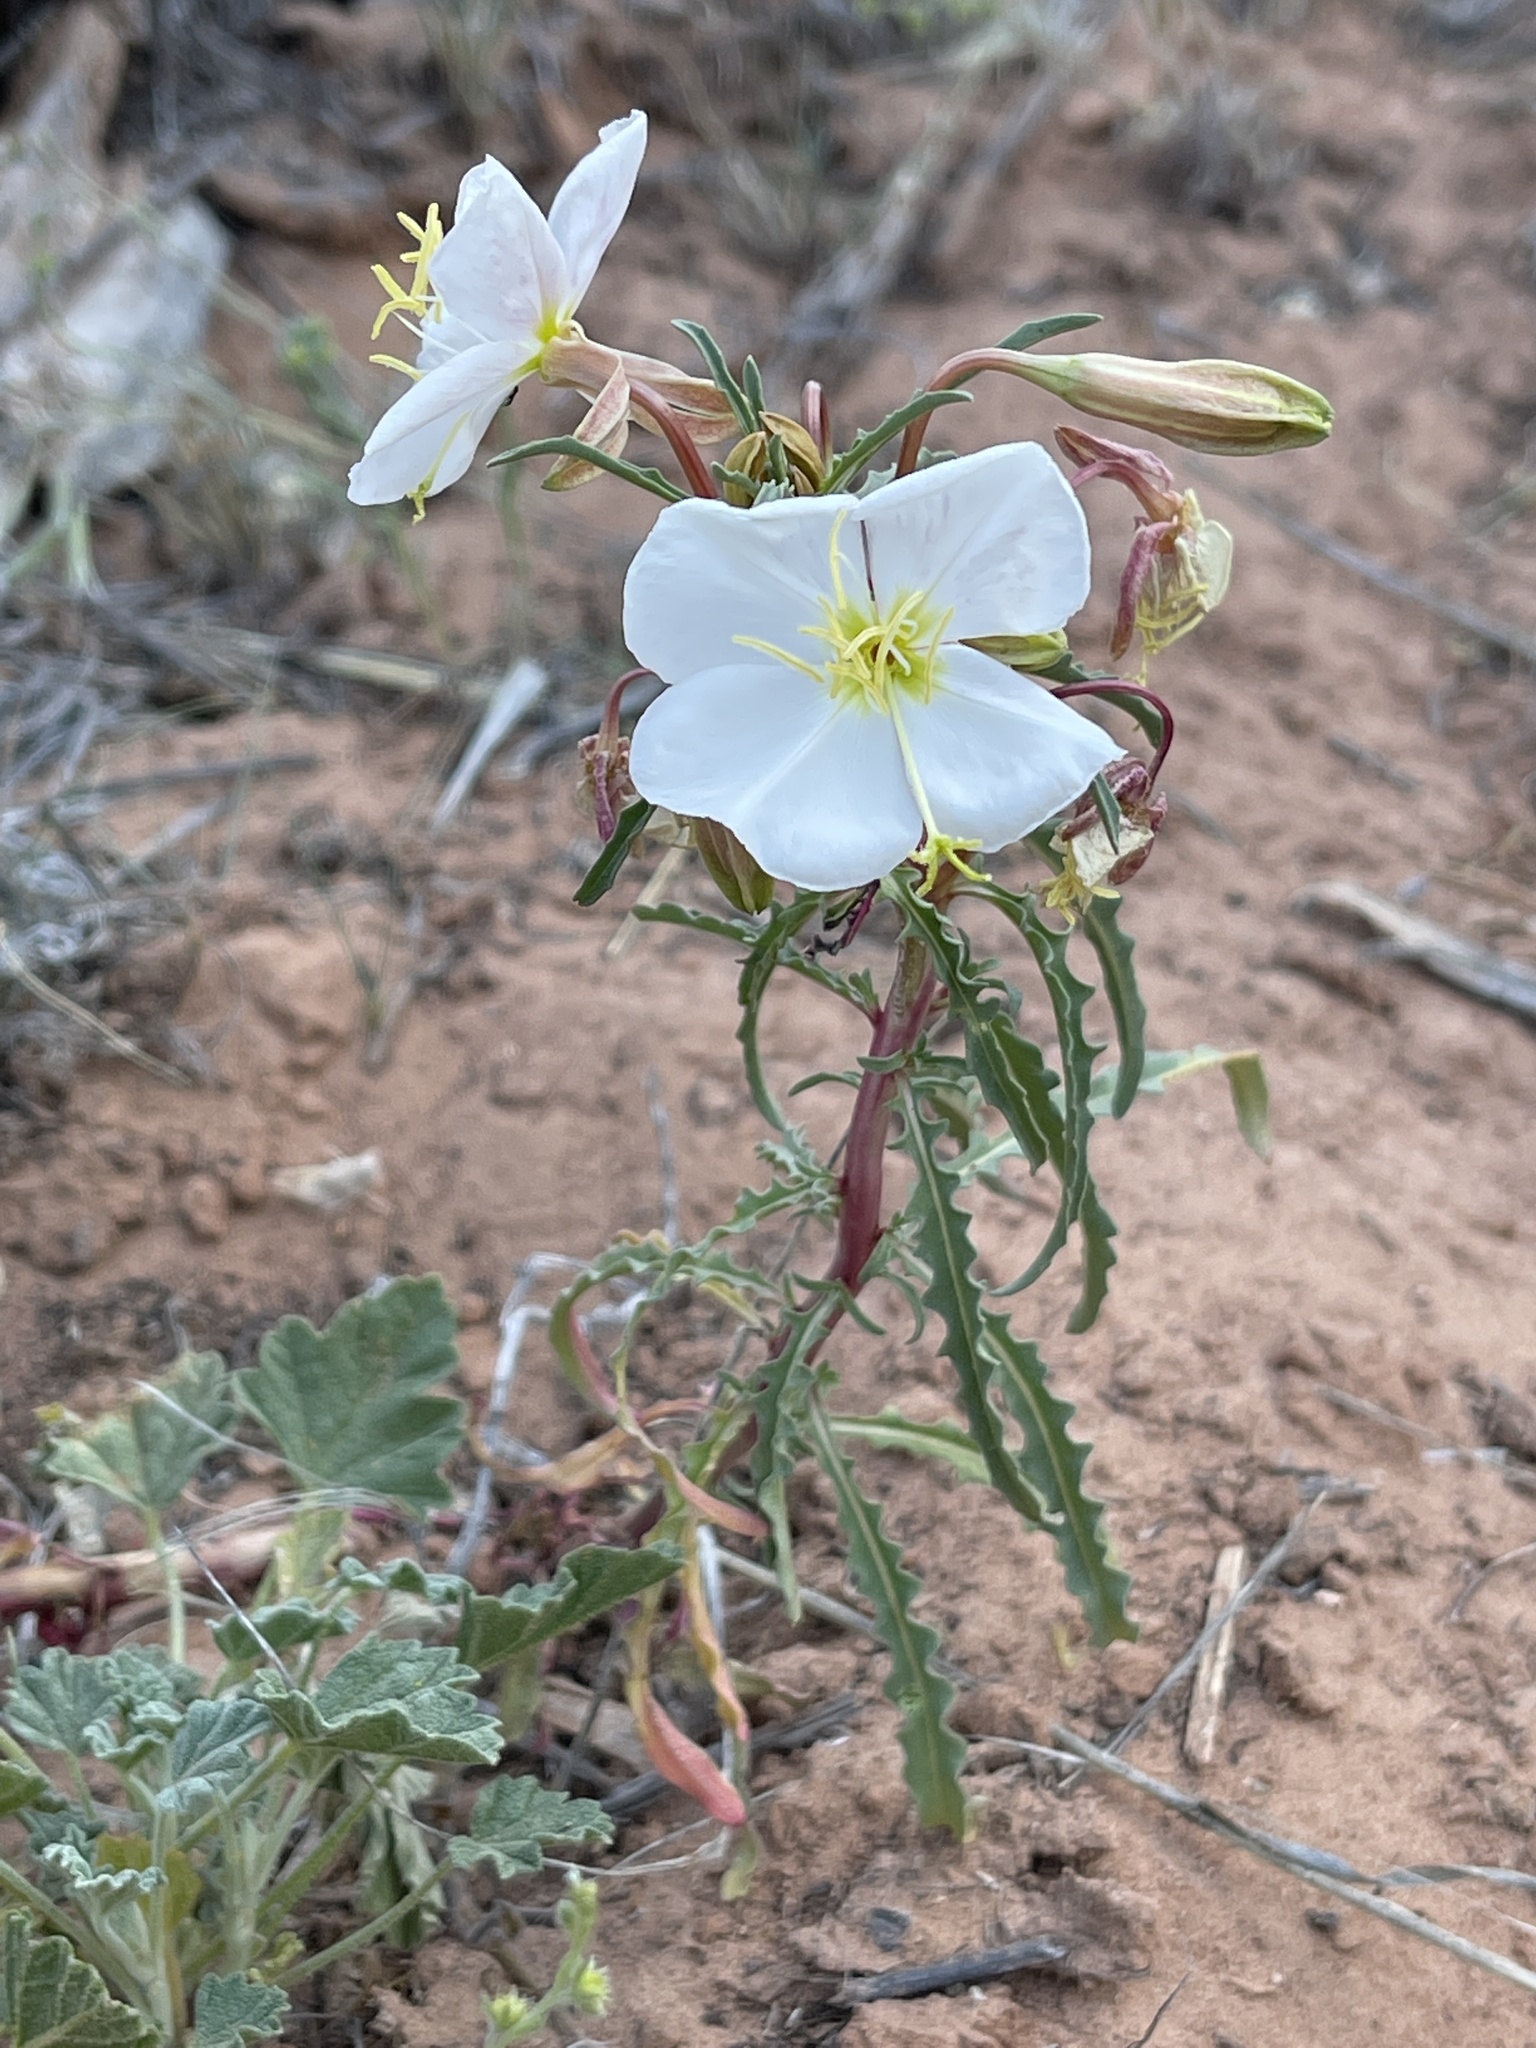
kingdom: Plantae
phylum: Tracheophyta
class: Magnoliopsida
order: Myrtales
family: Onagraceae
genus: Oenothera
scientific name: Oenothera pallida
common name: Pale evening-primrose
